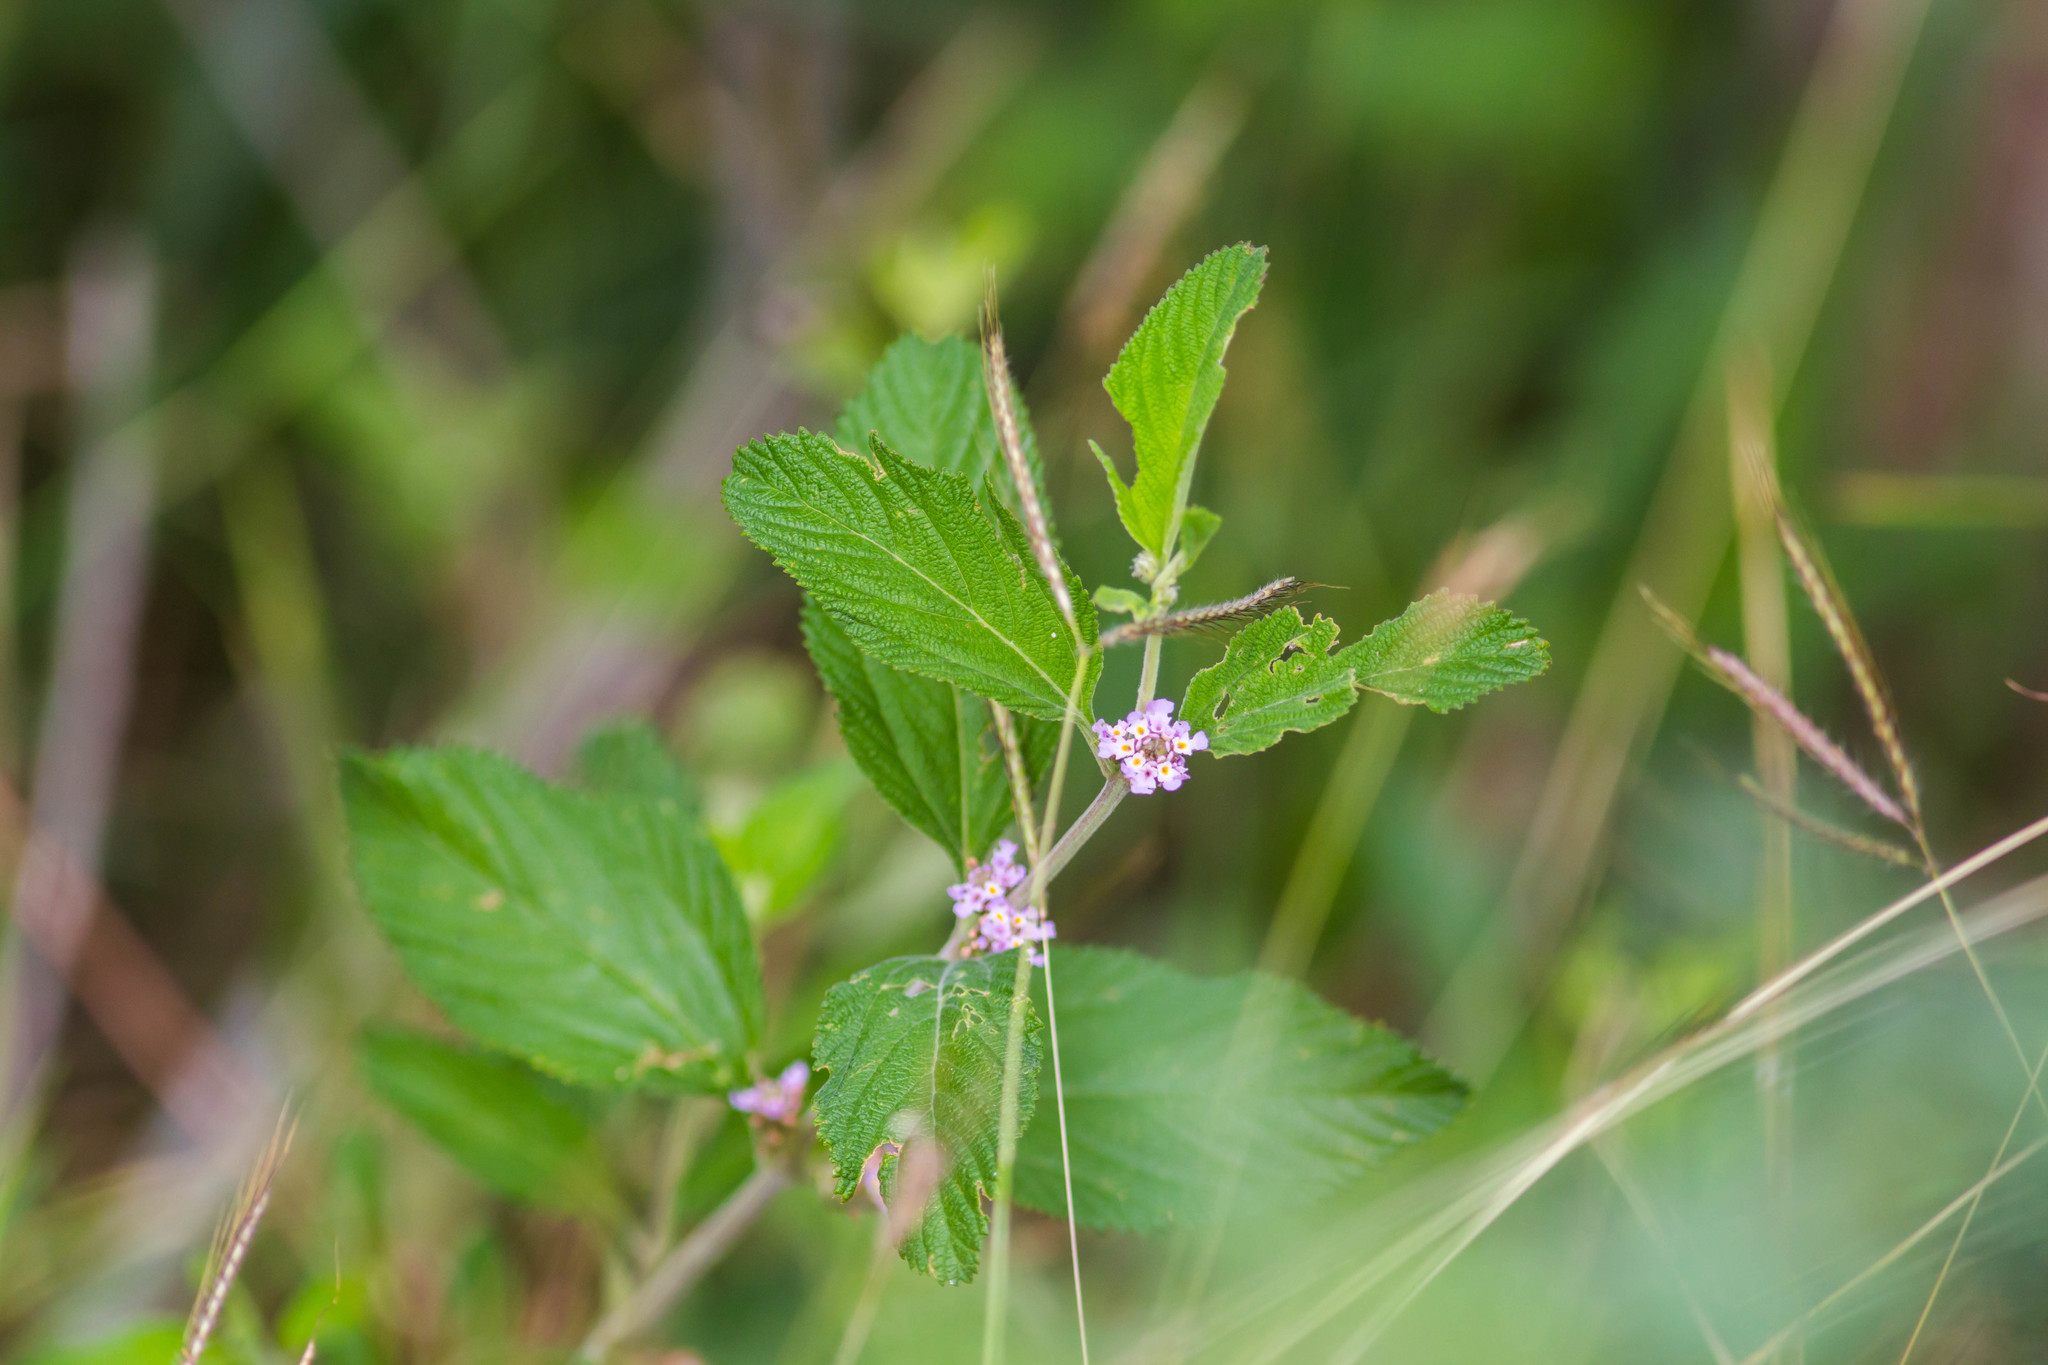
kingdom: Plantae
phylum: Tracheophyta
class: Magnoliopsida
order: Lamiales
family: Verbenaceae
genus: Lippia
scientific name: Lippia alba
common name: Bushy matgrass
